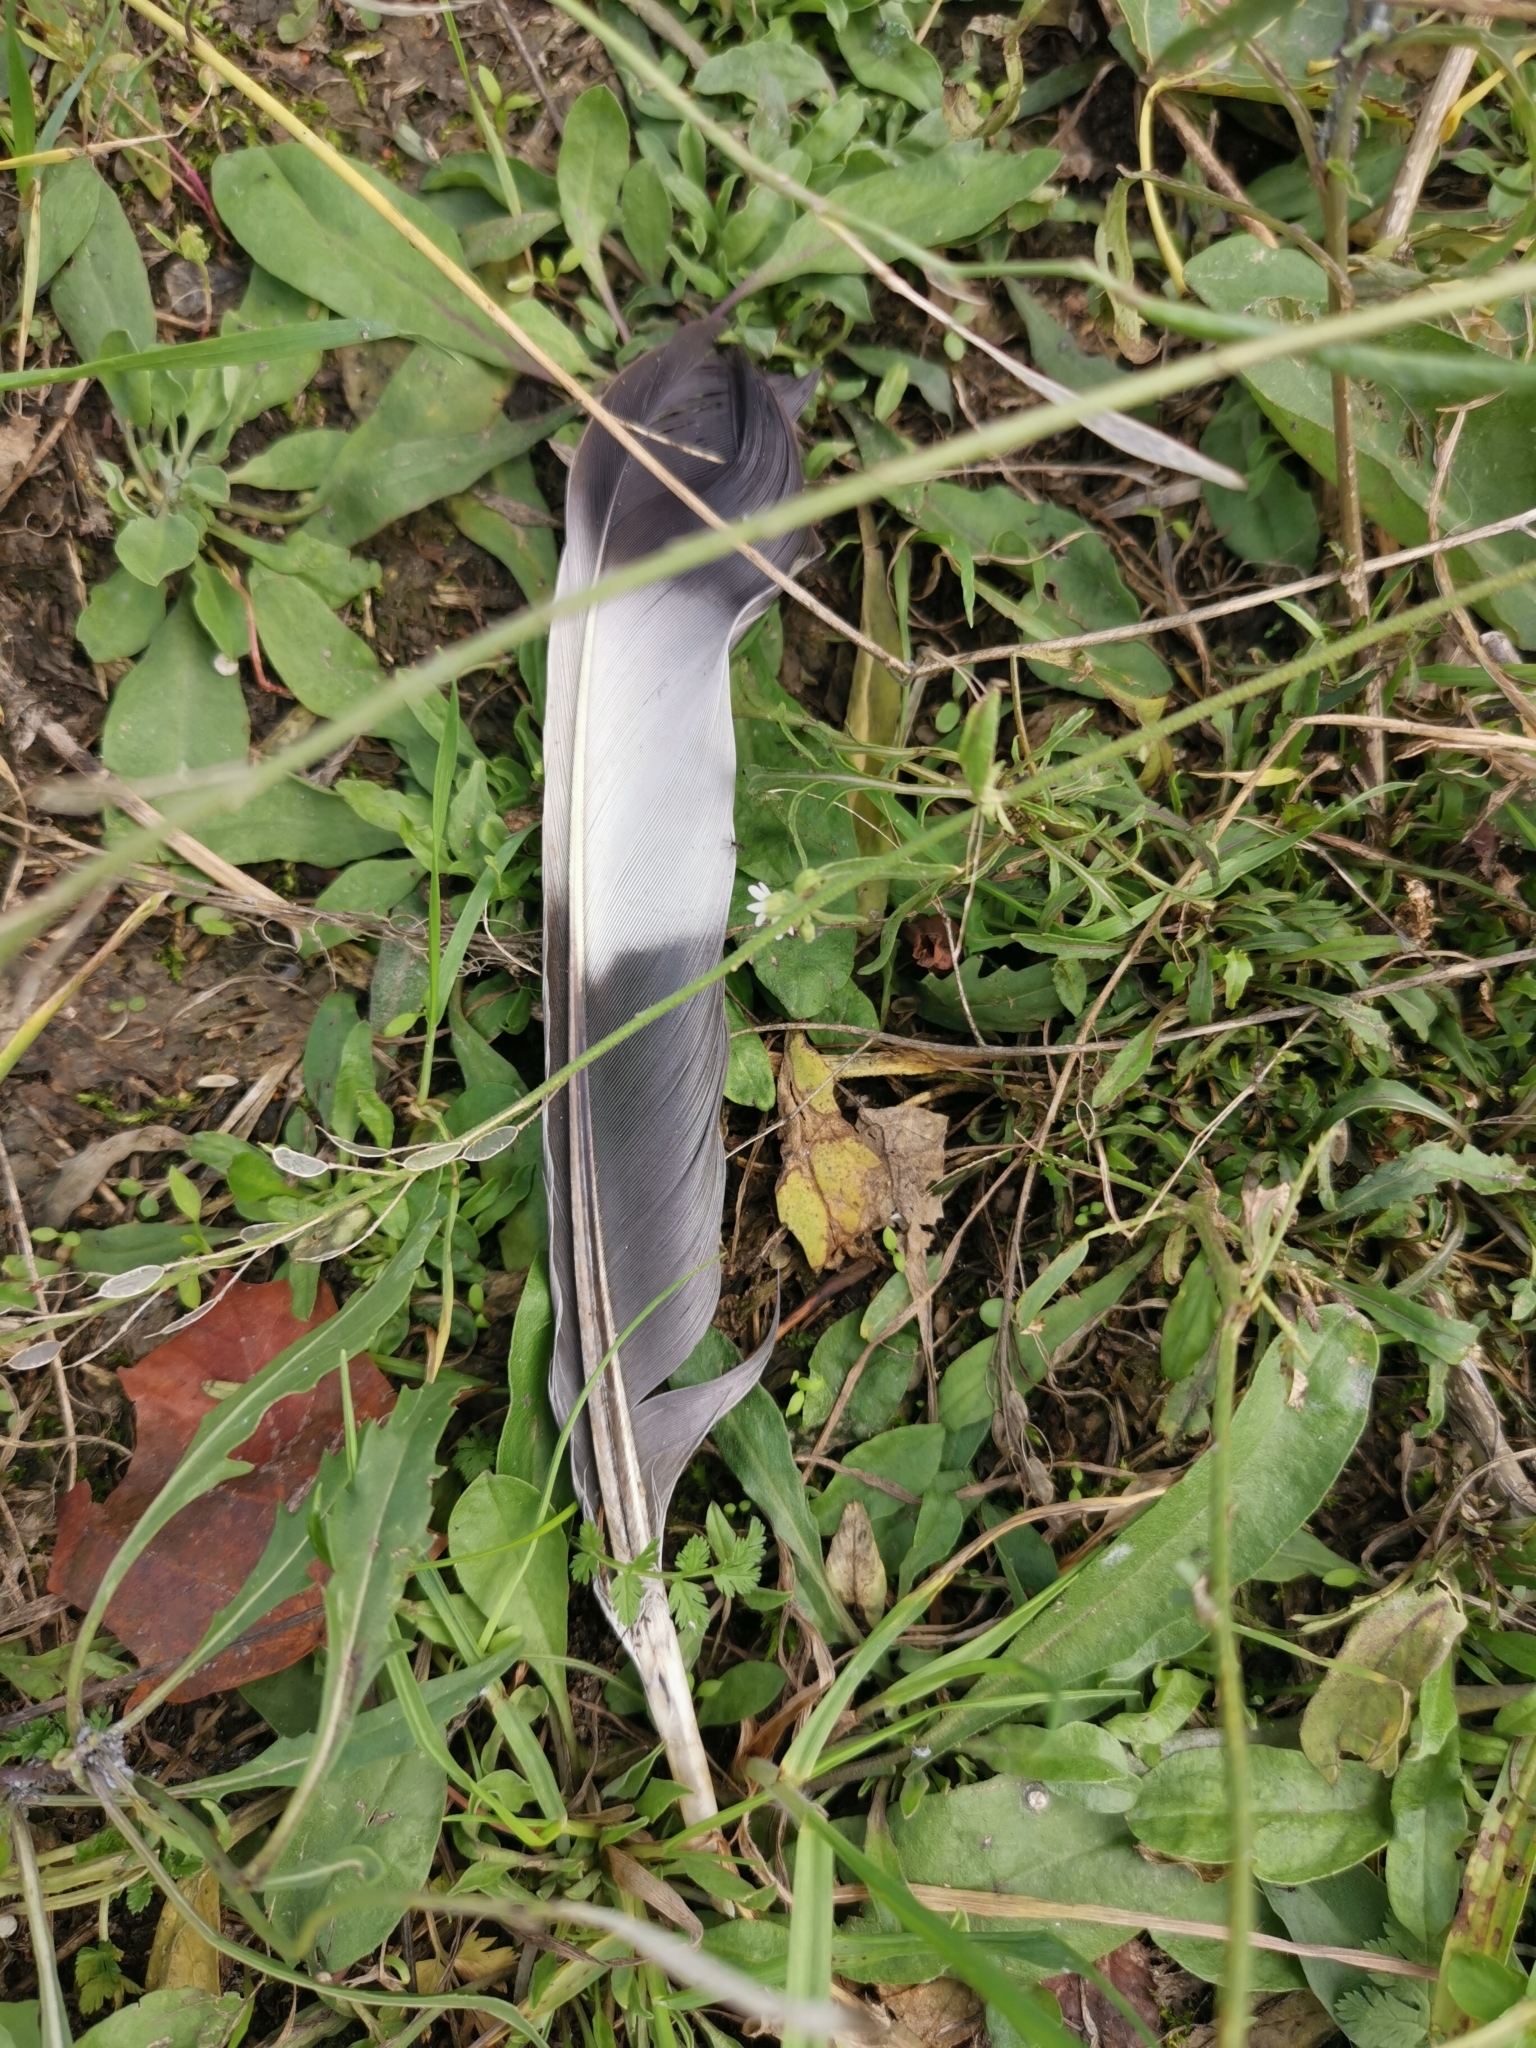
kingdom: Animalia
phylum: Chordata
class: Aves
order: Columbiformes
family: Columbidae
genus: Columba
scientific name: Columba palumbus
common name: Common wood pigeon
